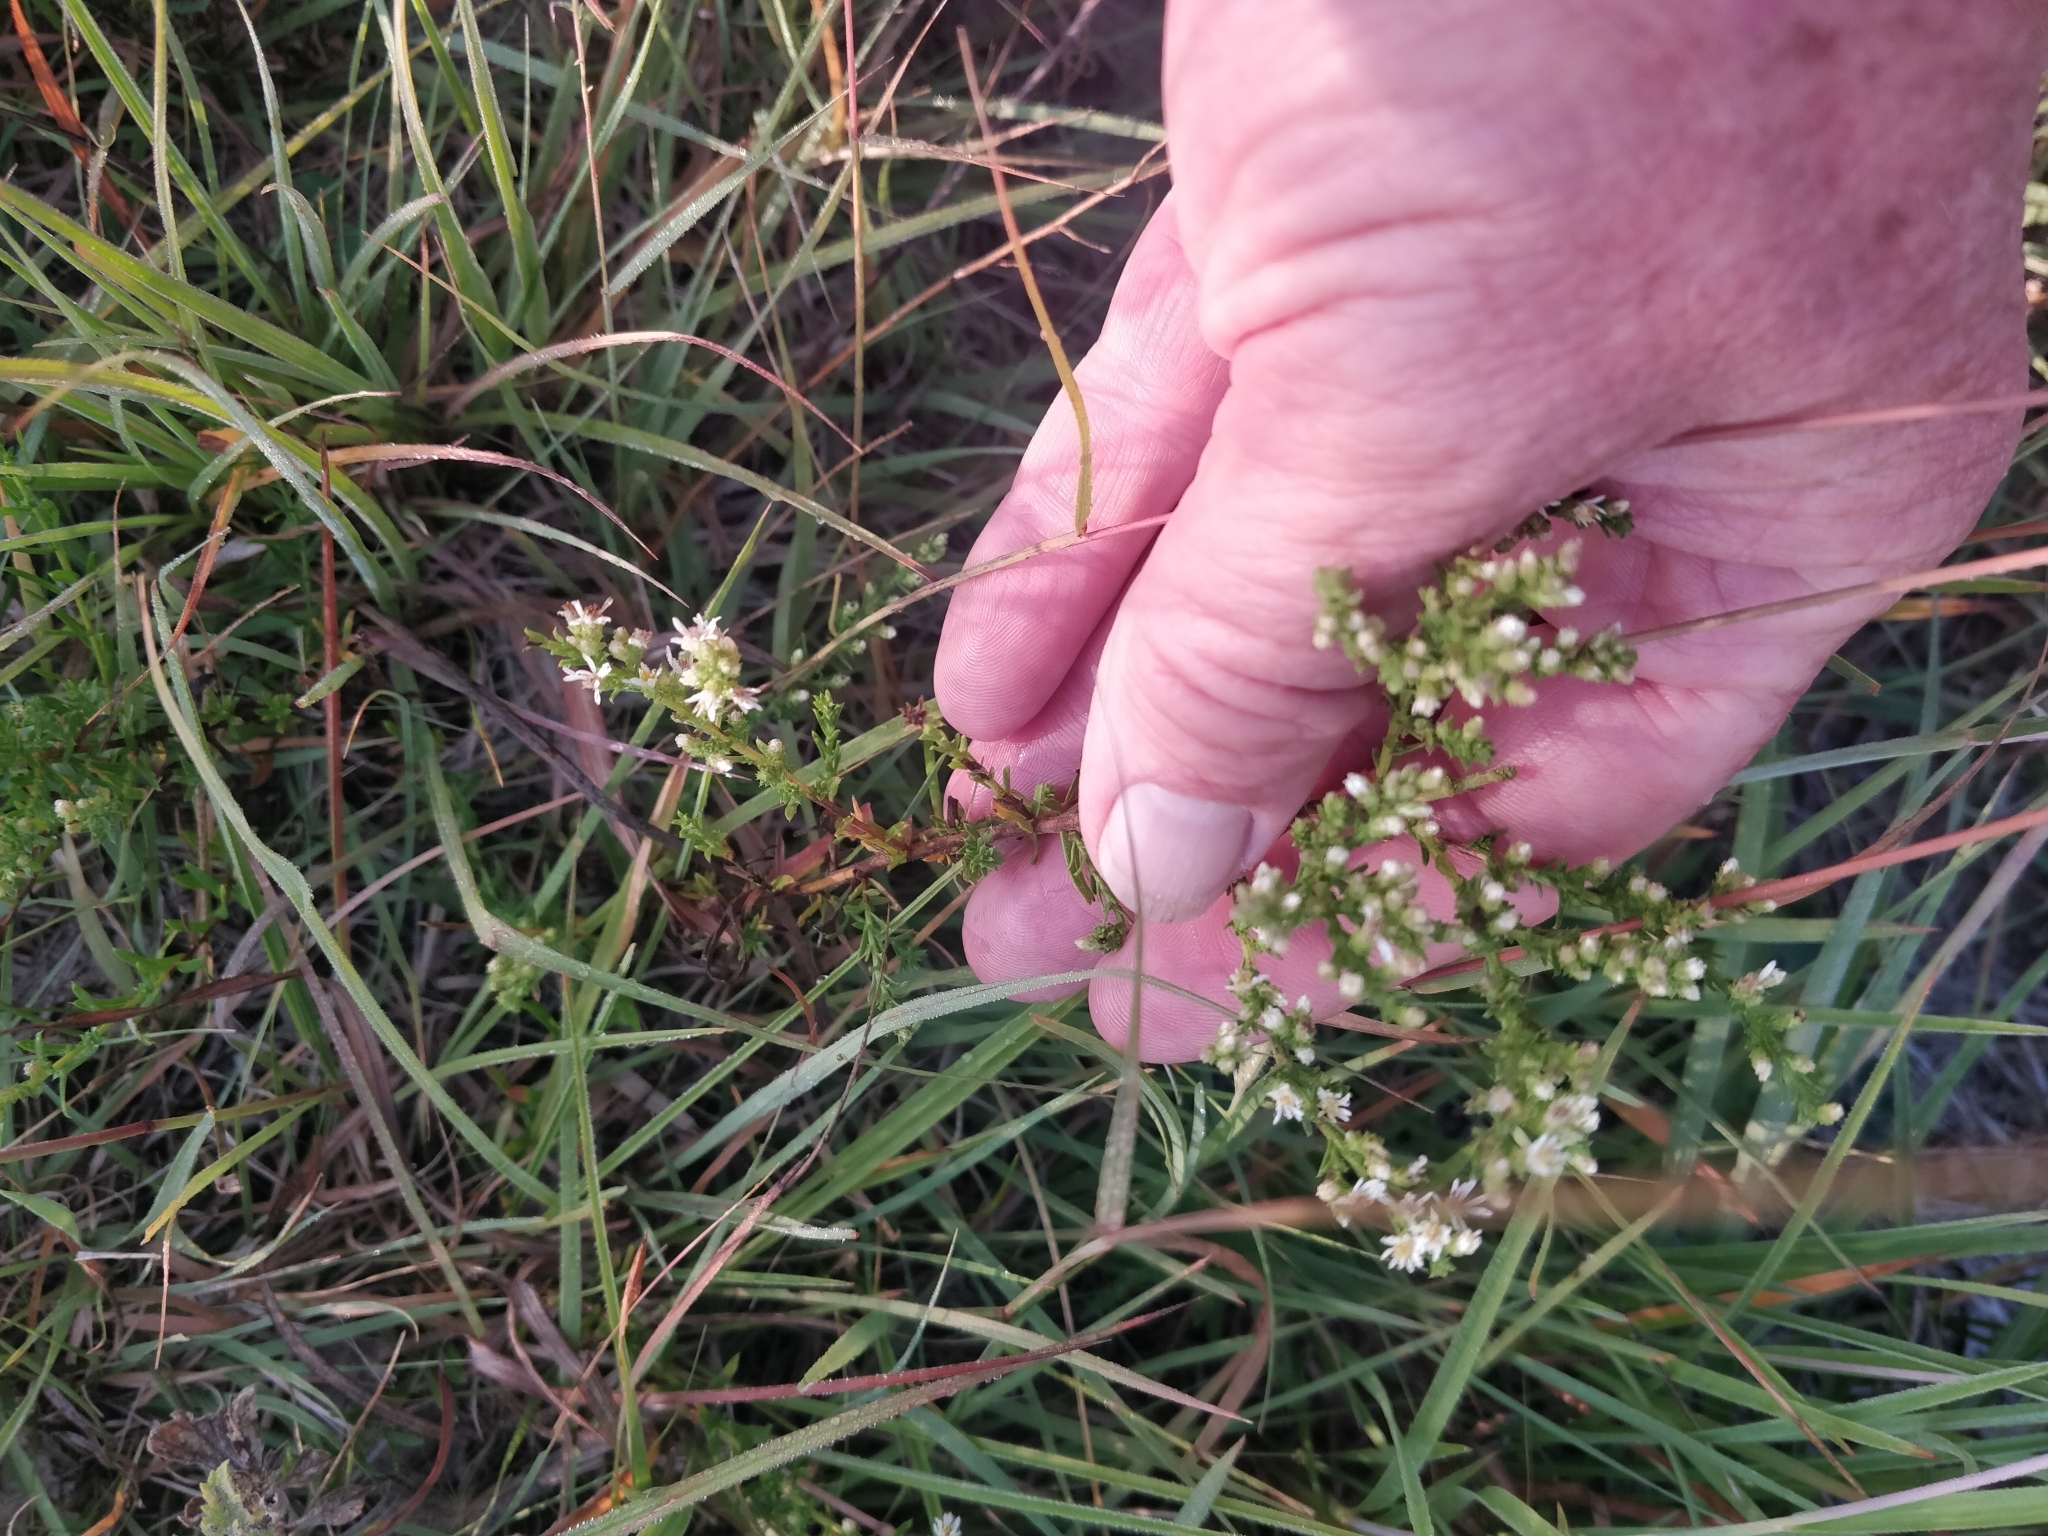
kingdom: Plantae
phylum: Tracheophyta
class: Magnoliopsida
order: Asterales
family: Asteraceae
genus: Symphyotrichum
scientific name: Symphyotrichum ericoides
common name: Heath aster
